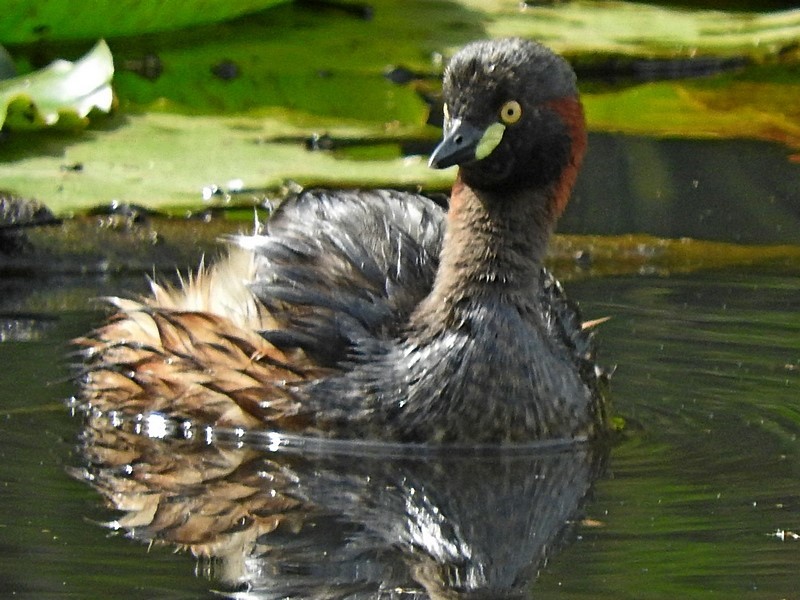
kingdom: Animalia
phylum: Chordata
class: Aves
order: Podicipediformes
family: Podicipedidae
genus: Tachybaptus
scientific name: Tachybaptus novaehollandiae
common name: Australasian grebe
